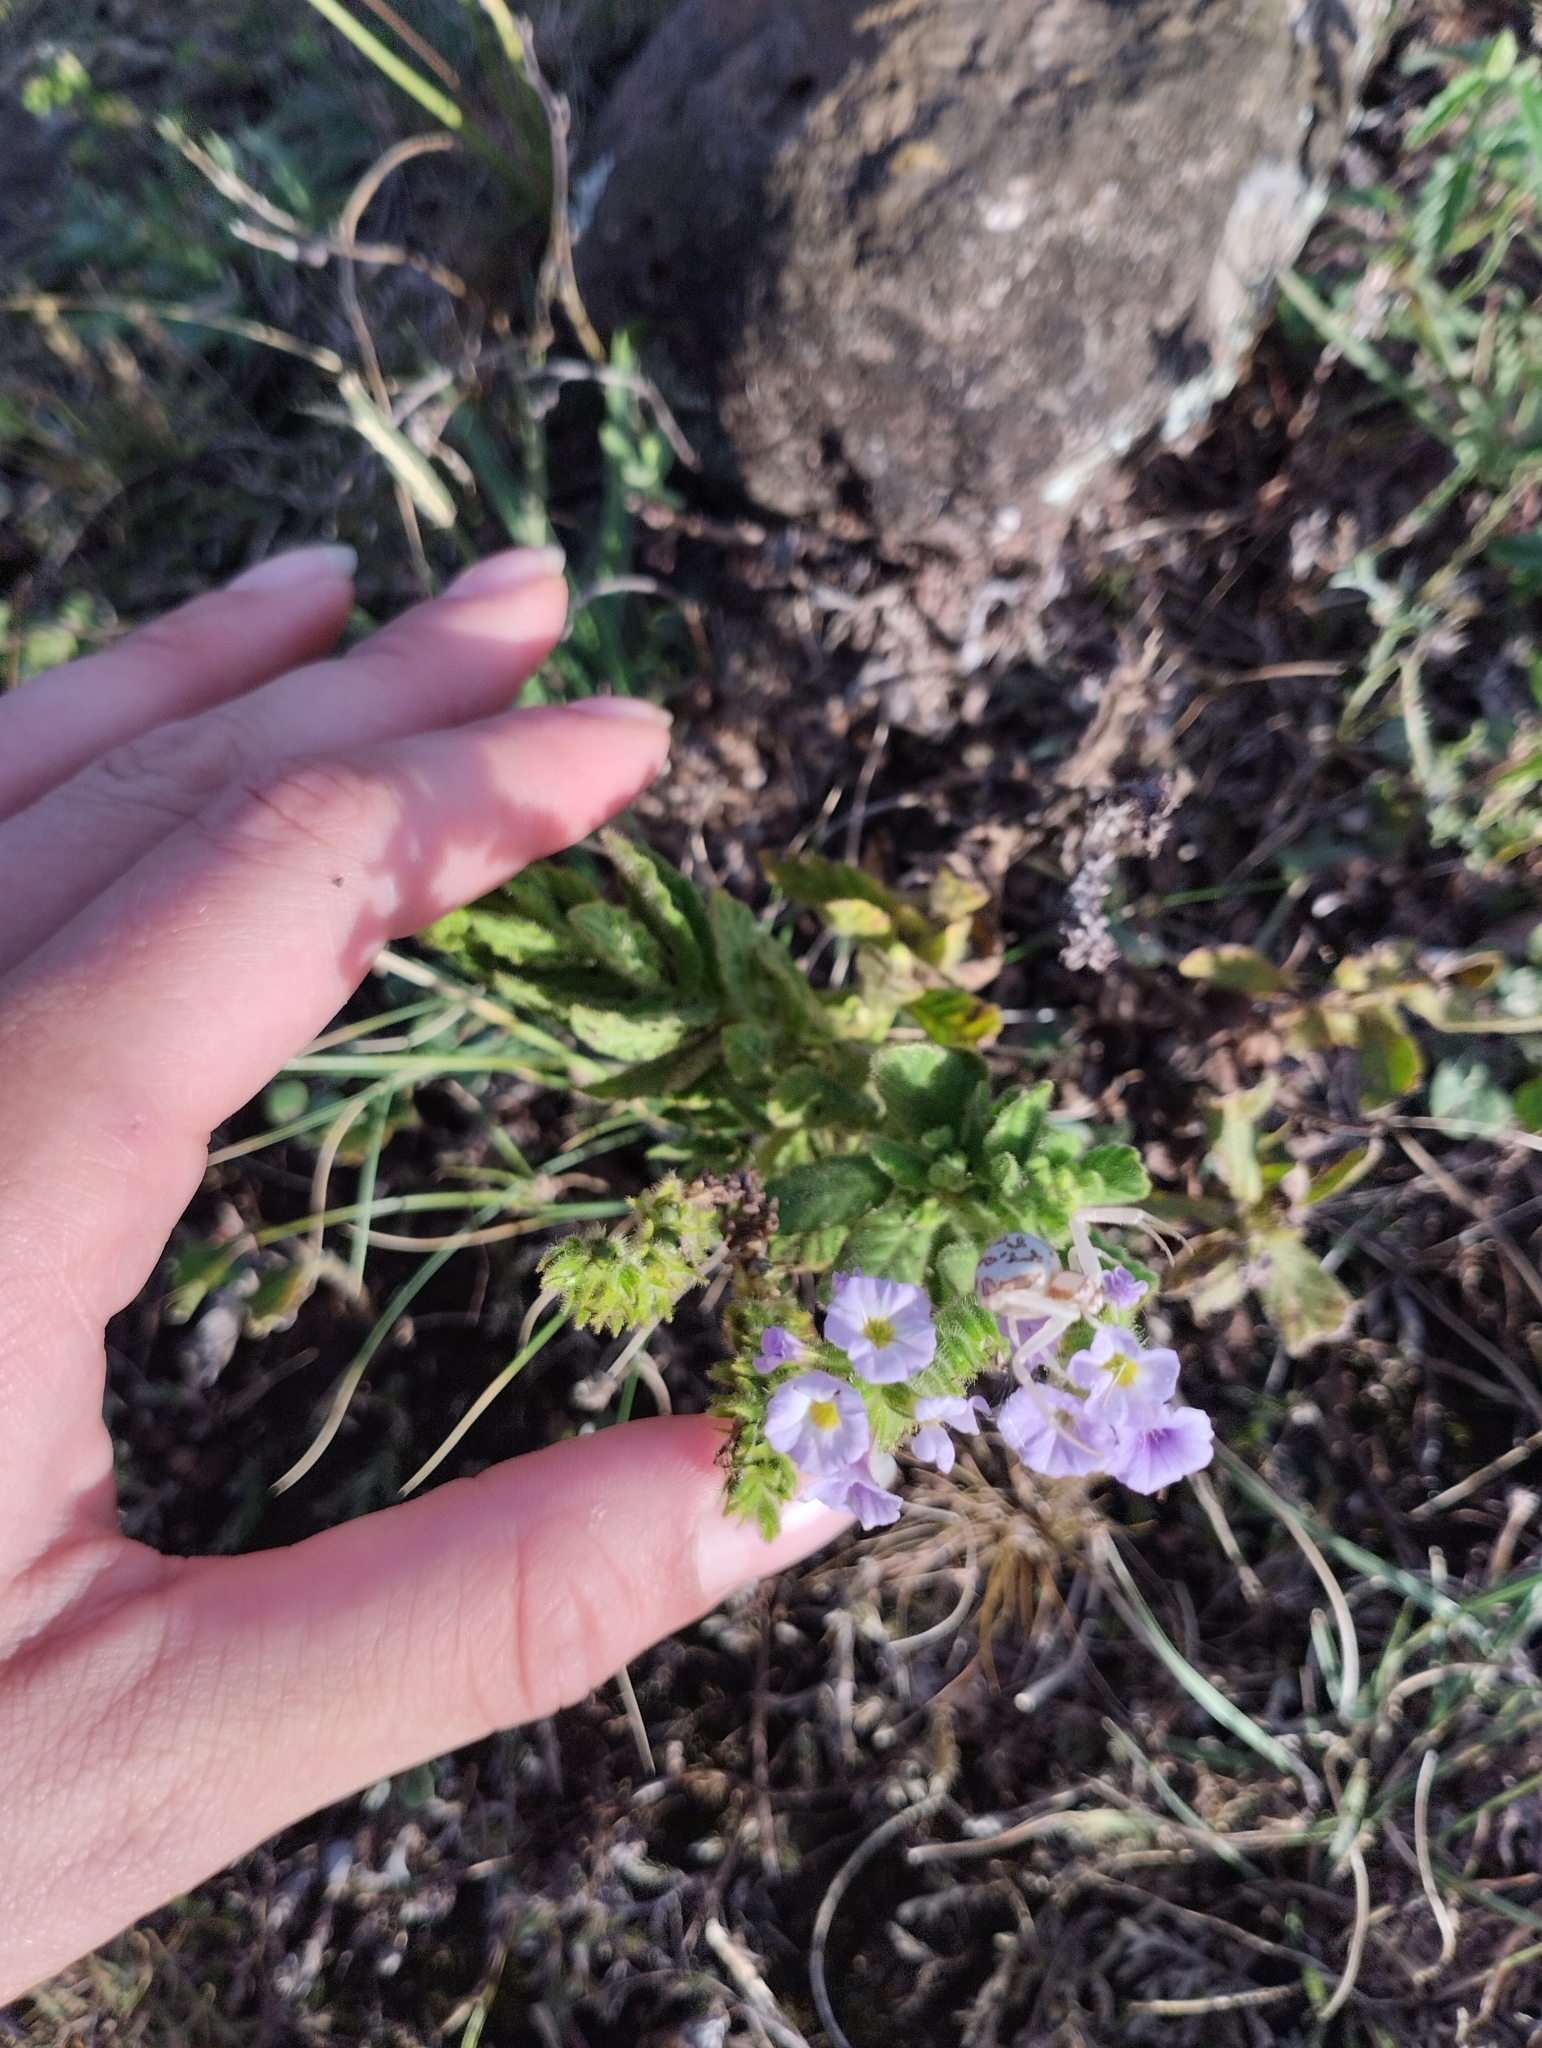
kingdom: Plantae
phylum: Tracheophyta
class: Magnoliopsida
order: Boraginales
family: Heliotropiaceae
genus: Heliotropium
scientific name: Heliotropium amplexicaule
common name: Clasping heliotrope
